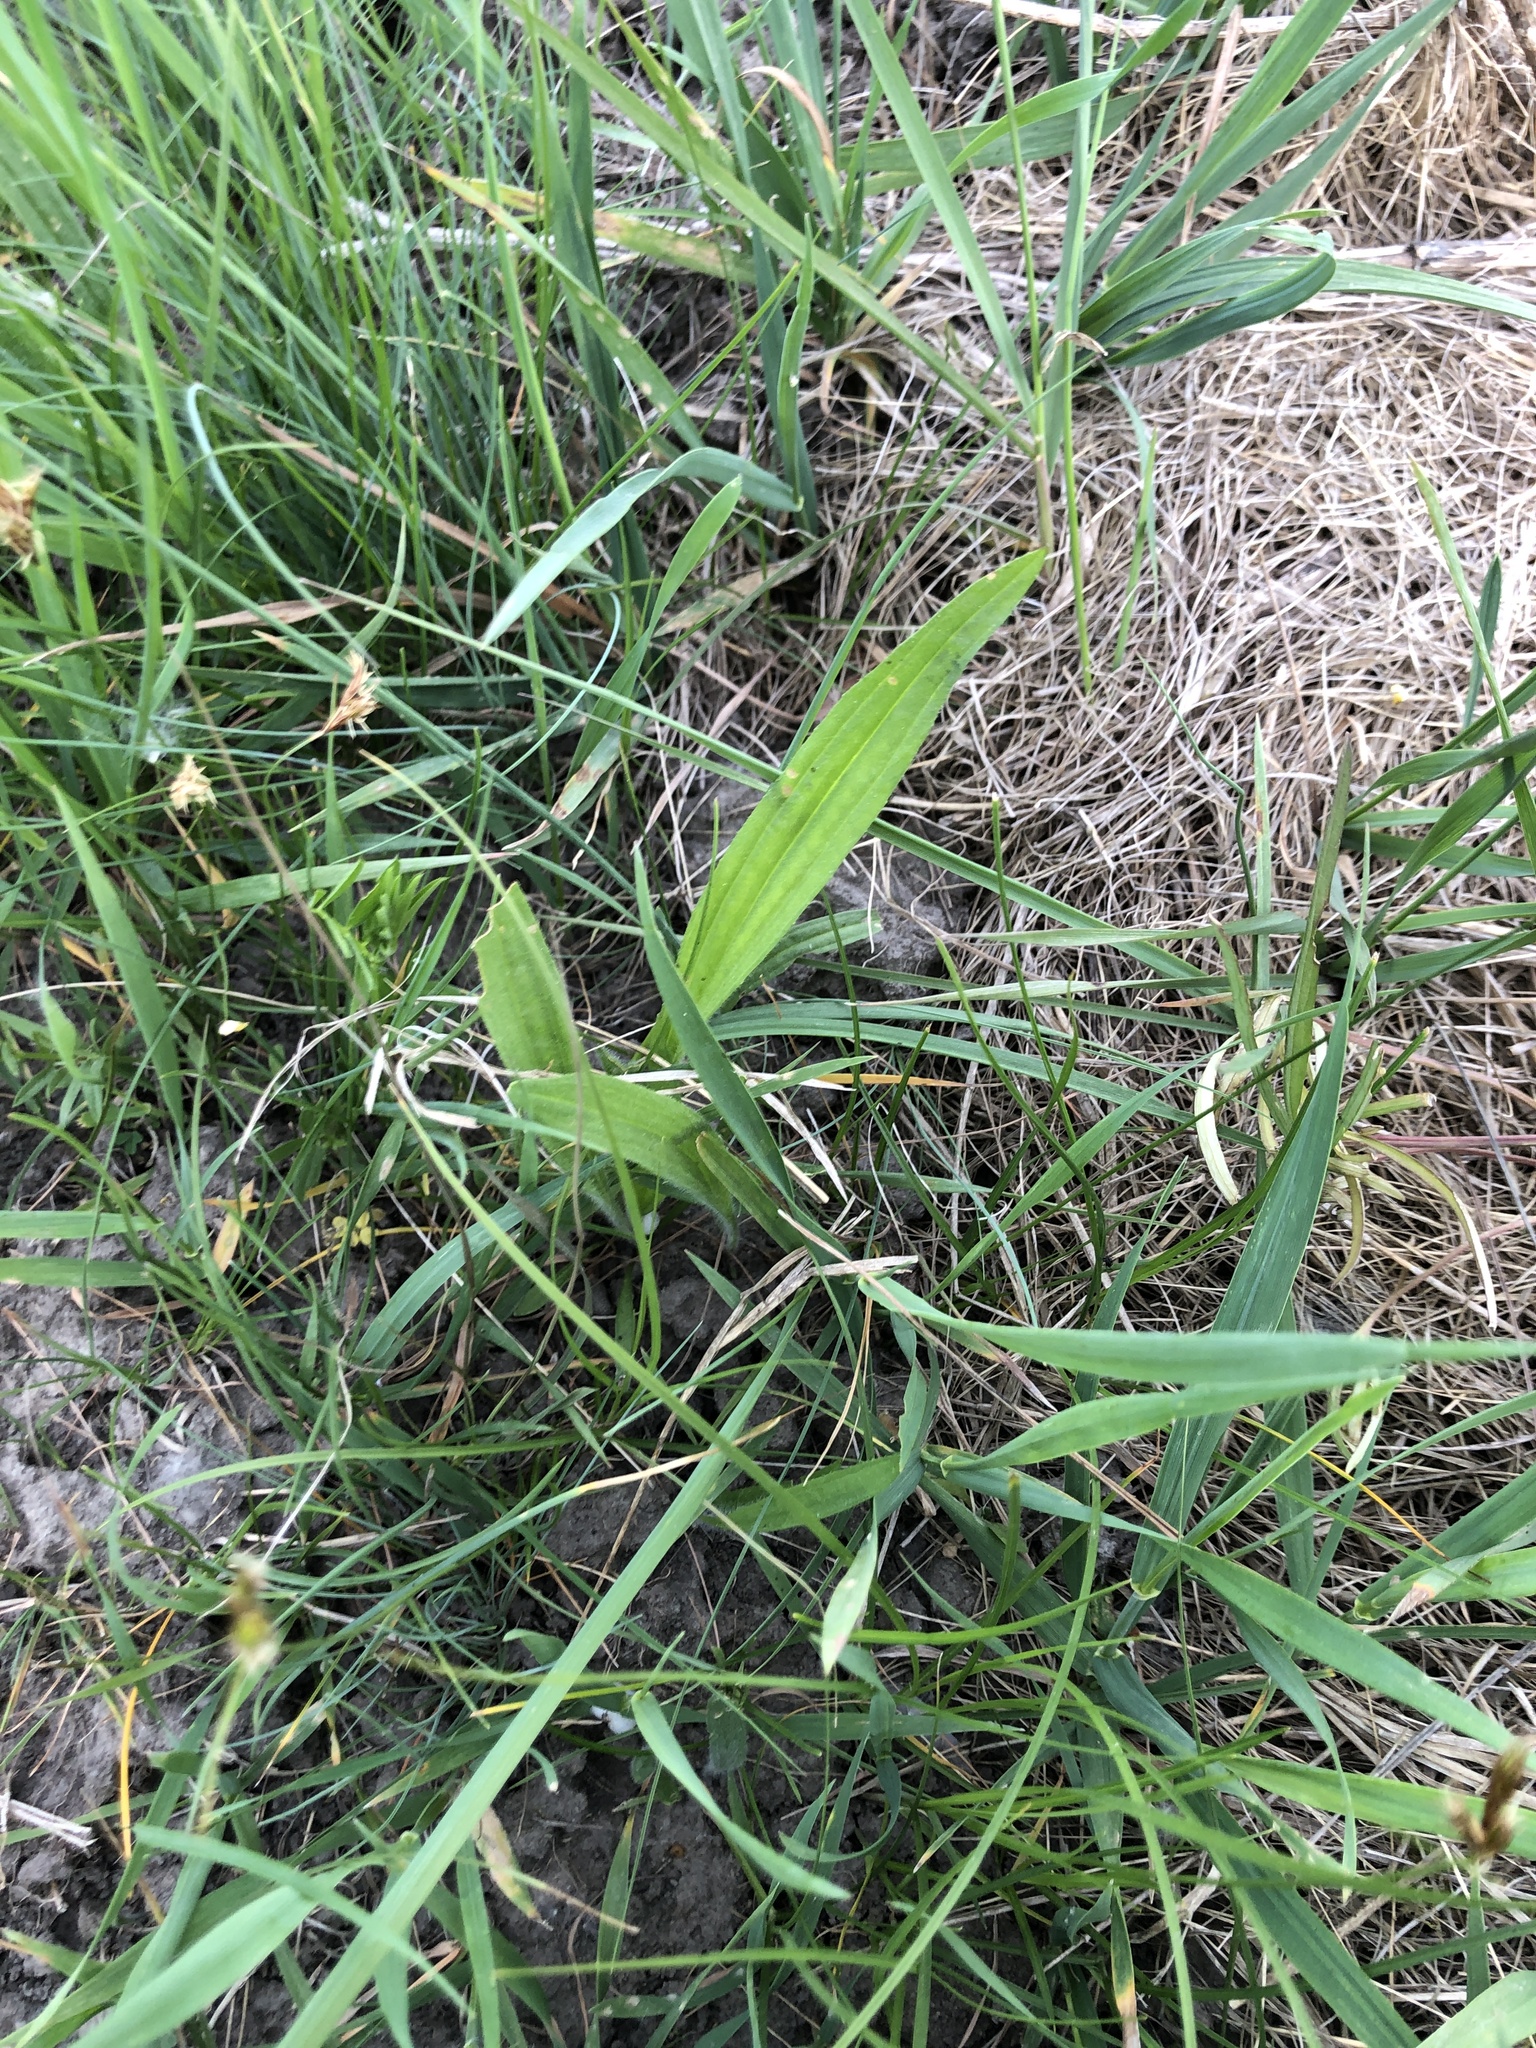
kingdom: Plantae
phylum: Tracheophyta
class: Magnoliopsida
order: Lamiales
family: Plantaginaceae
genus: Plantago
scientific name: Plantago lanceolata
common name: Ribwort plantain
